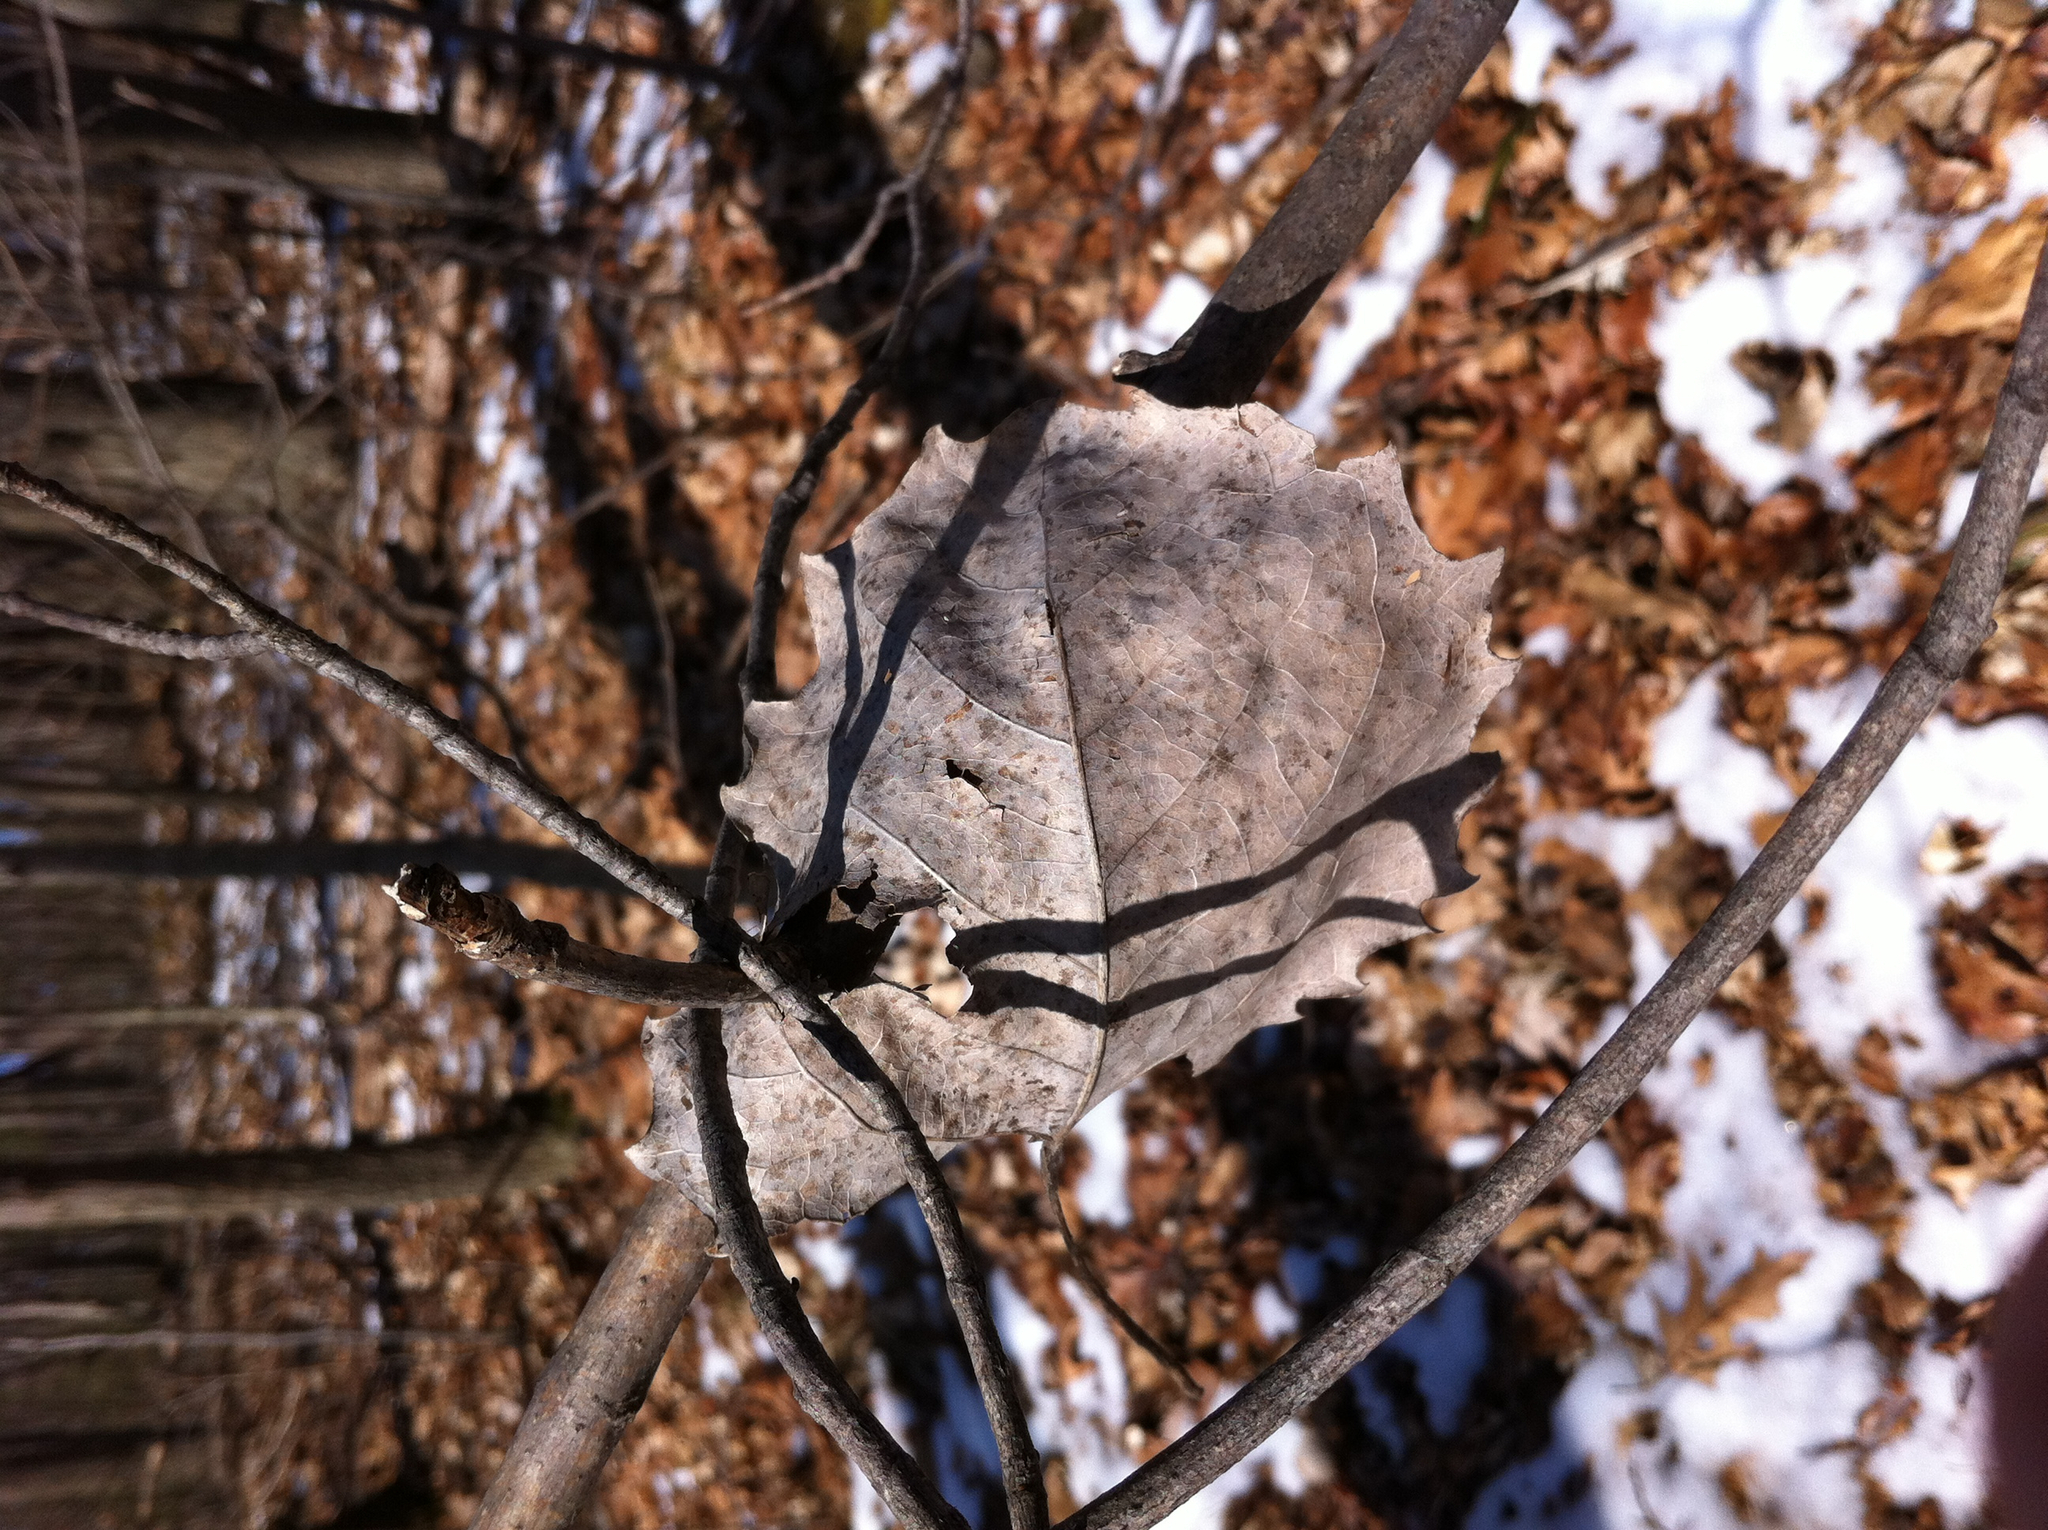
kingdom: Plantae
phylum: Tracheophyta
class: Magnoliopsida
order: Malpighiales
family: Salicaceae
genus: Populus
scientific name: Populus grandidentata
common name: Bigtooth aspen
